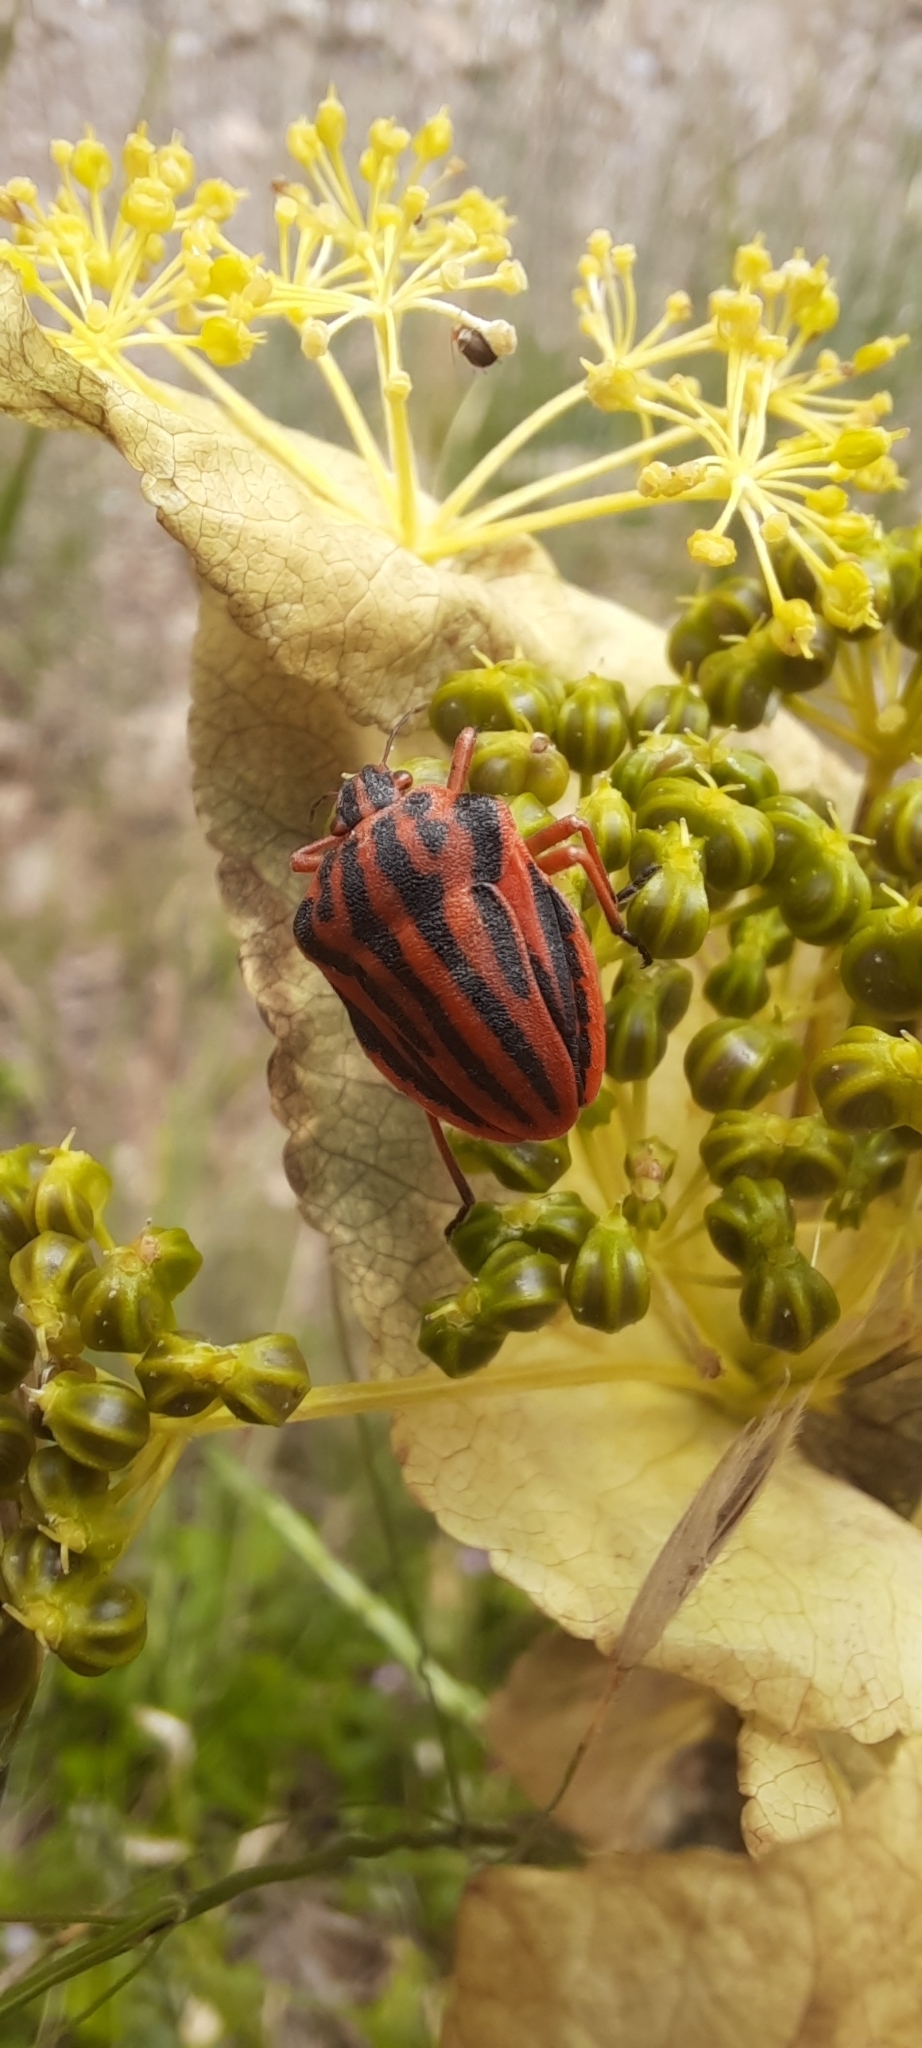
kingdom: Animalia
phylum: Arthropoda
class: Insecta
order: Hemiptera
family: Pentatomidae
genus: Graphosoma
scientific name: Graphosoma semipunctatum
